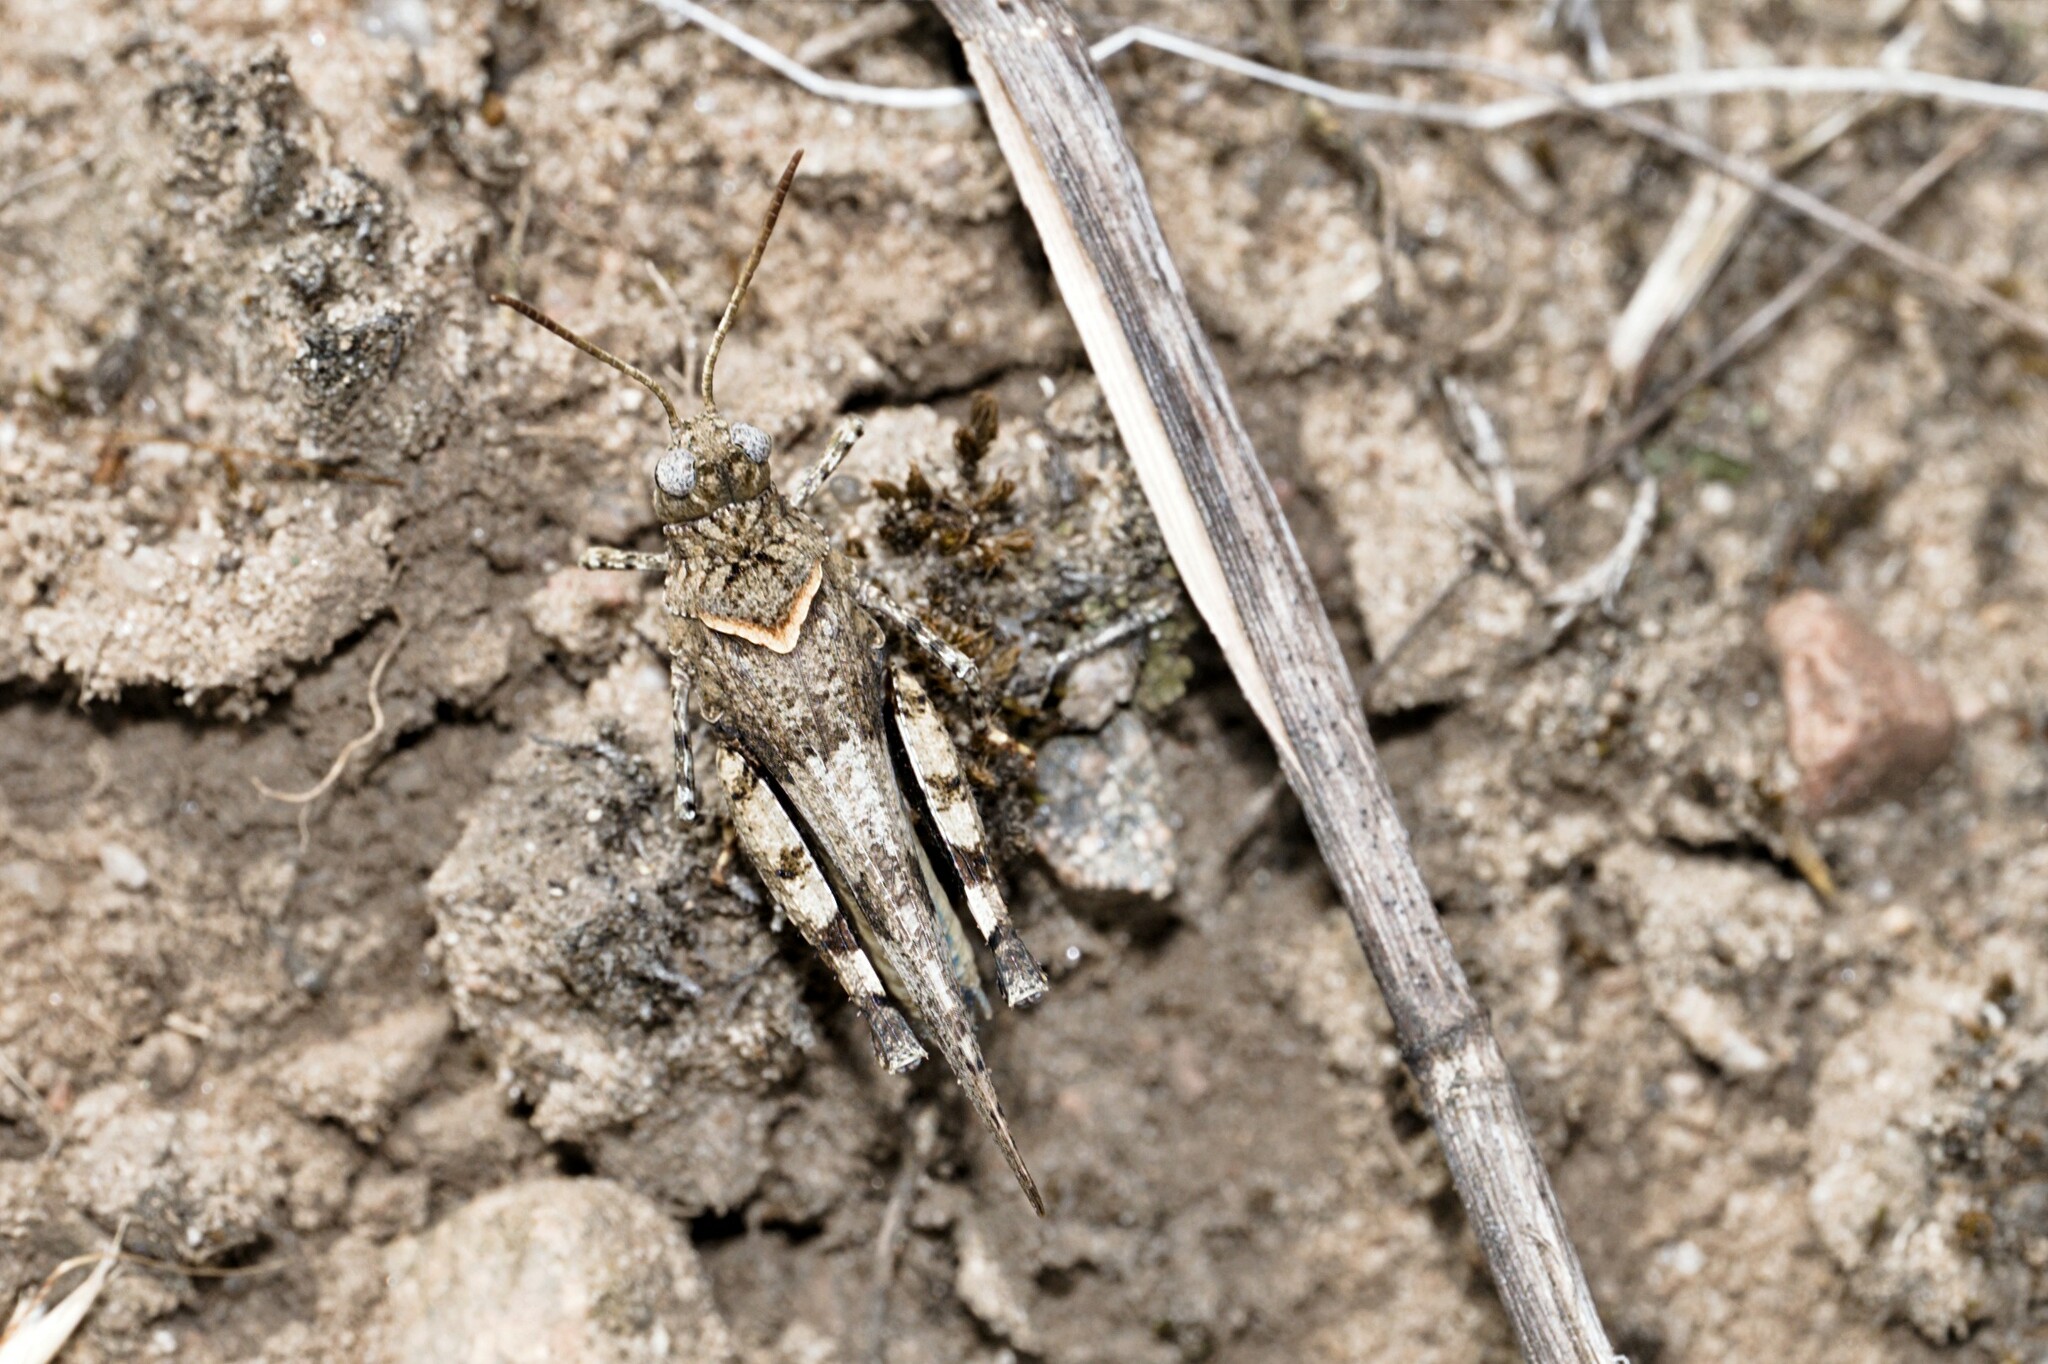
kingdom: Animalia
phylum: Arthropoda
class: Insecta
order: Orthoptera
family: Acrididae
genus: Oedipoda
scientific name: Oedipoda caerulescens
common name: Blue-winged grasshopper
